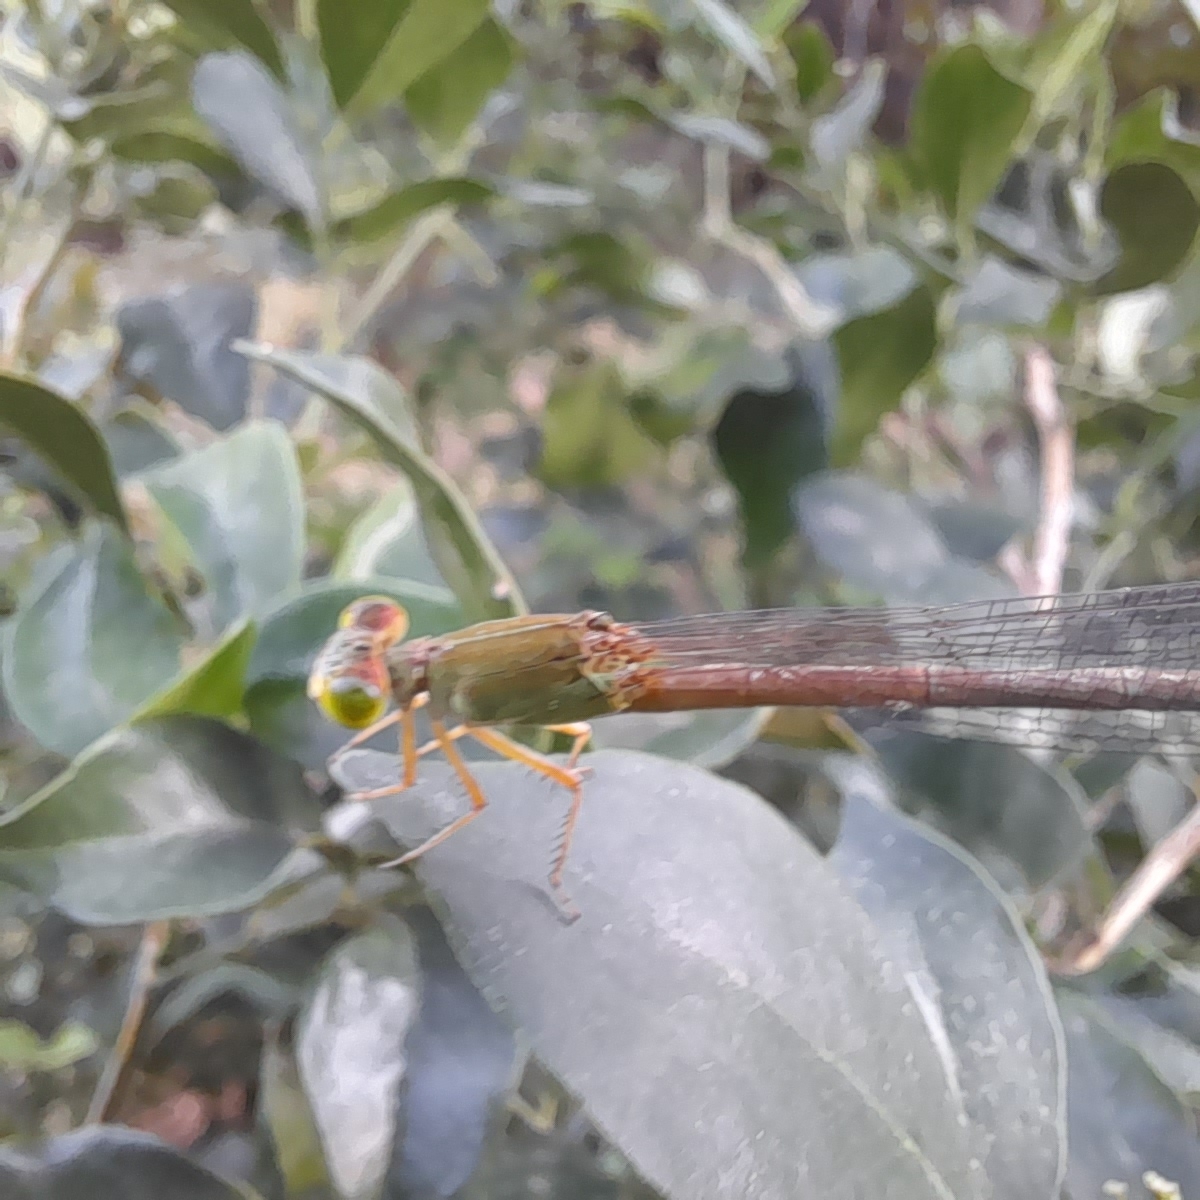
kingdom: Animalia
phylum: Arthropoda
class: Insecta
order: Odonata
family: Coenagrionidae
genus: Ceriagrion
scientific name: Ceriagrion coromandelianum
